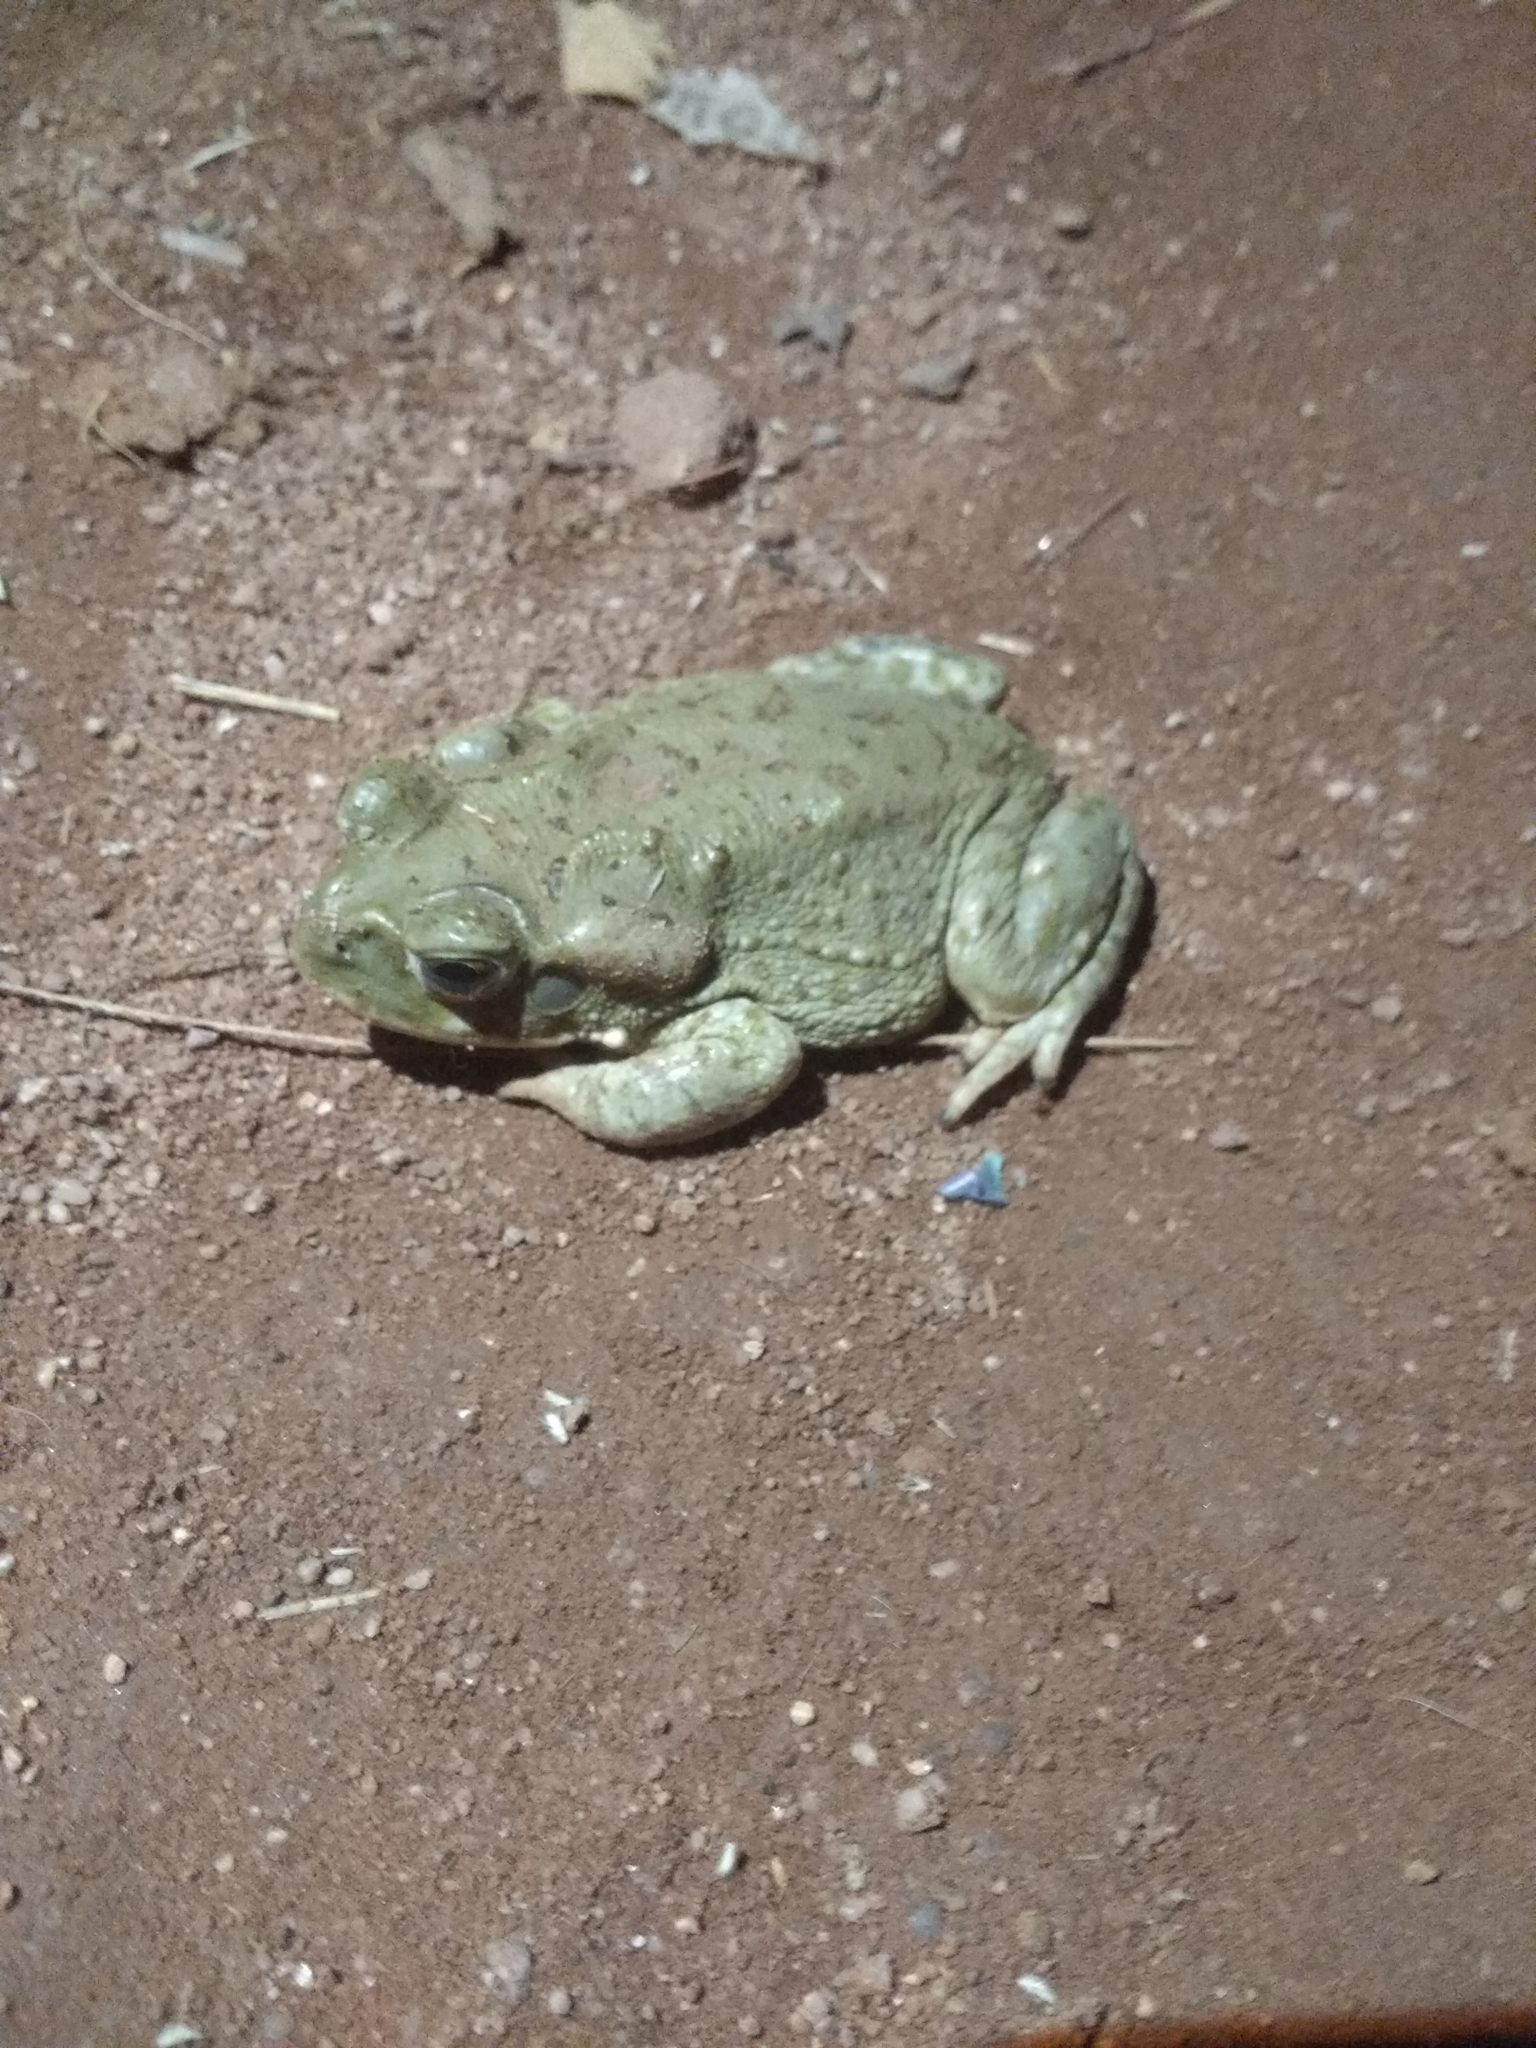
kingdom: Animalia
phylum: Chordata
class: Amphibia
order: Anura
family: Bufonidae
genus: Incilius
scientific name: Incilius alvarius
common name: Sonoran desert toad
